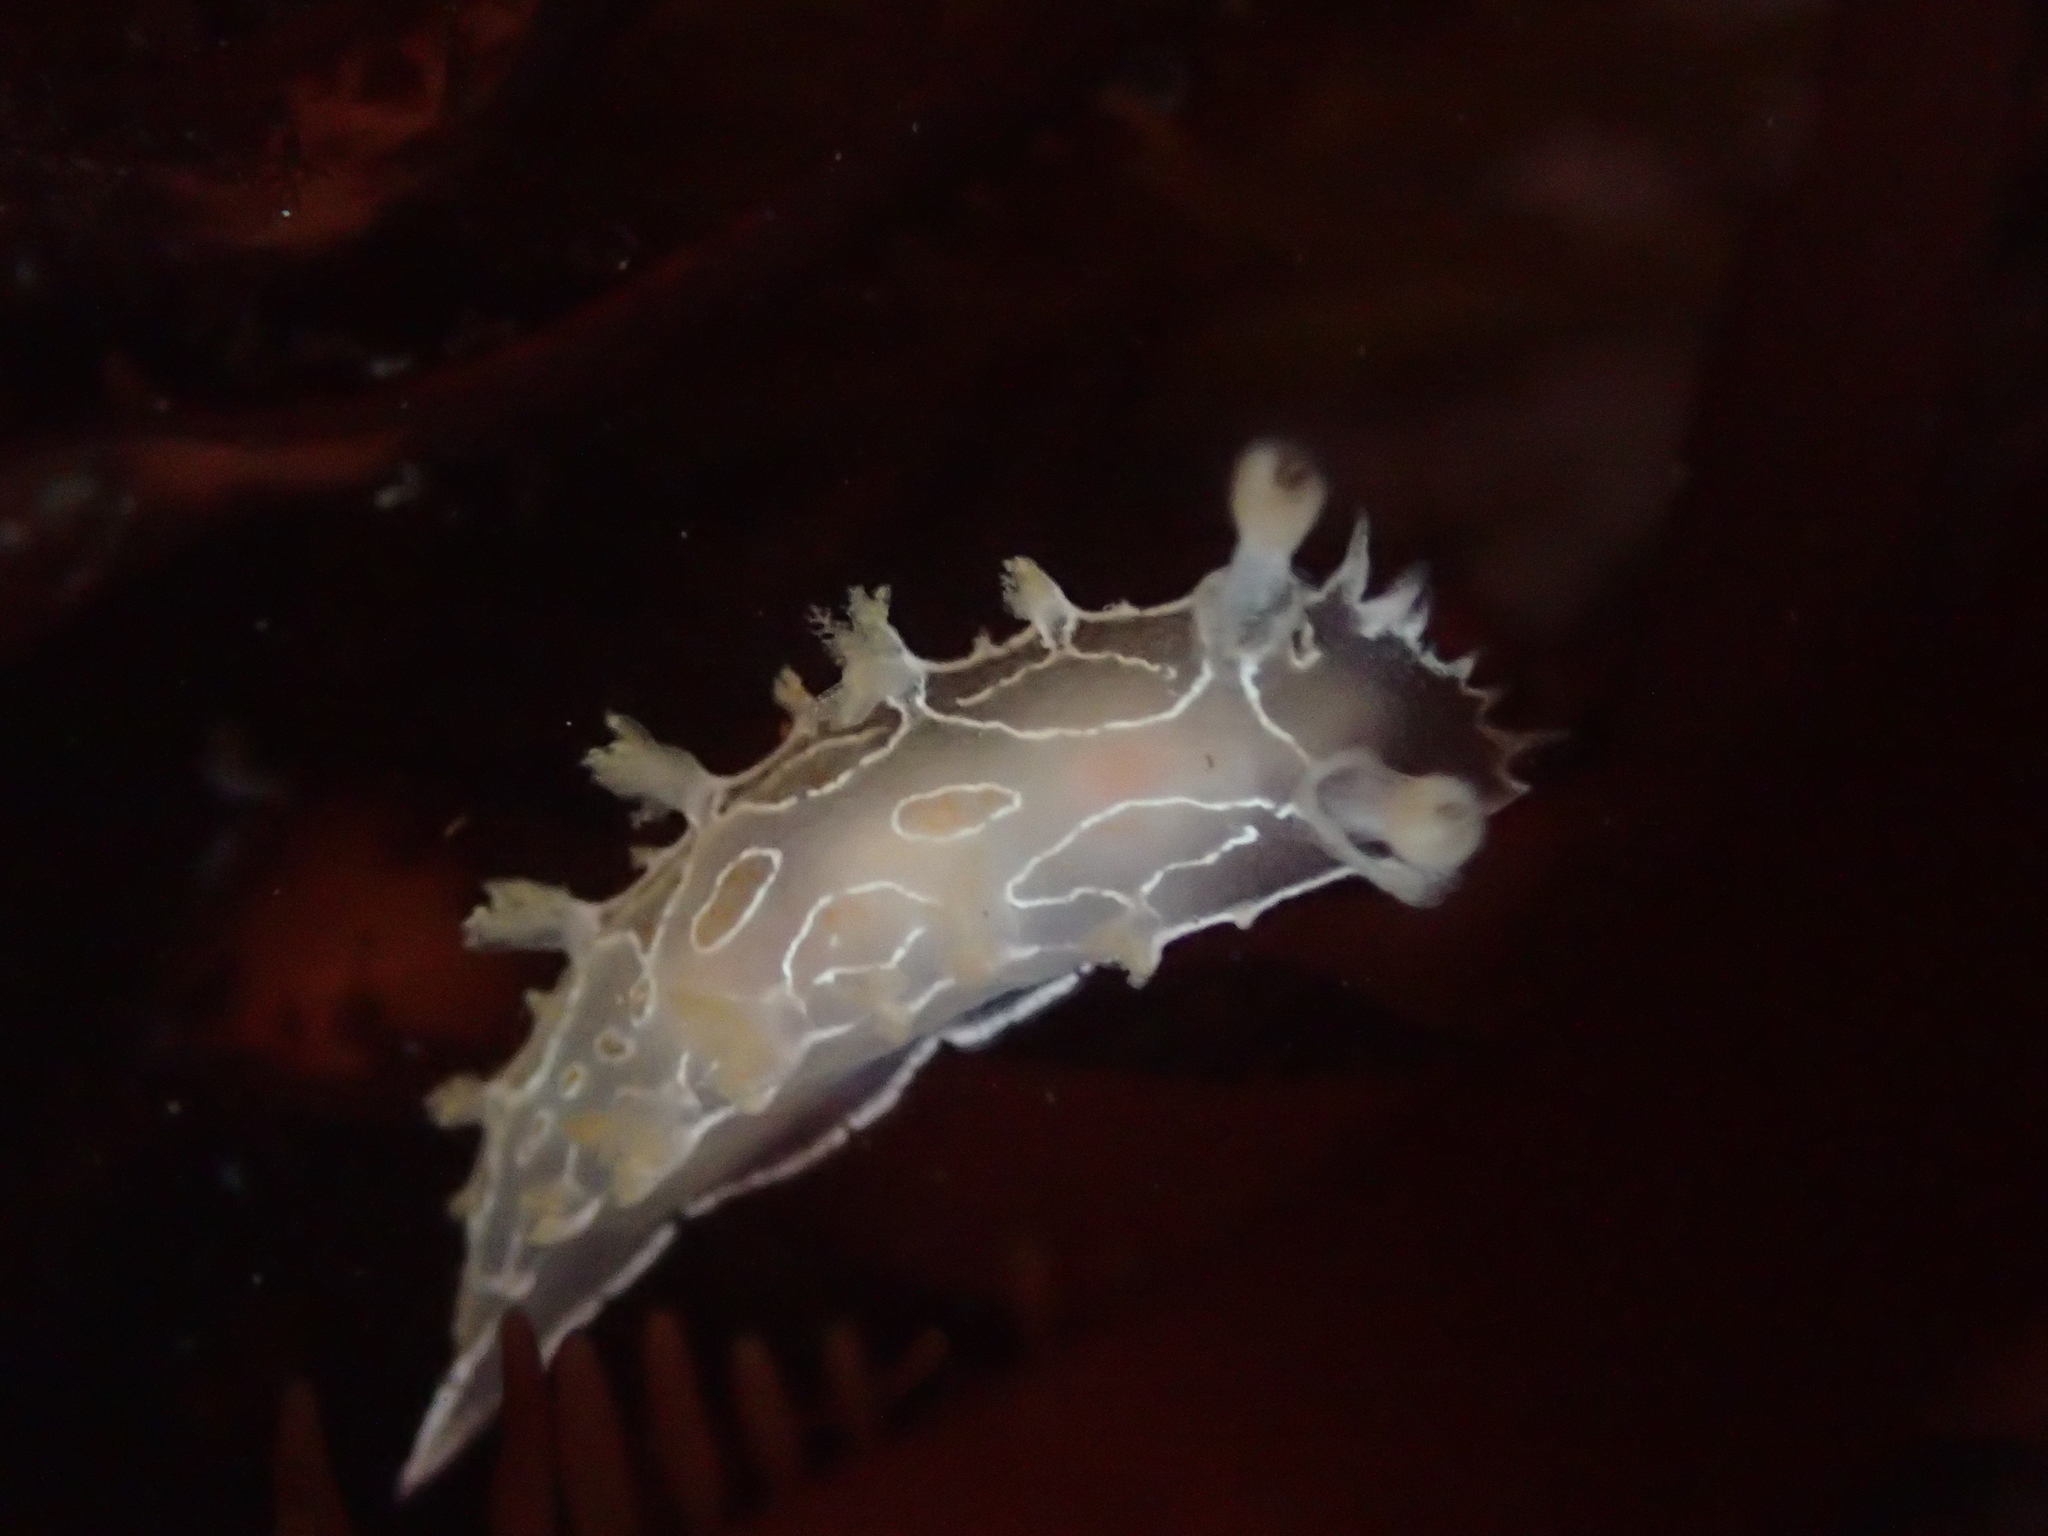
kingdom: Animalia
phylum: Mollusca
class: Gastropoda
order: Nudibranchia
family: Tritoniidae
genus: Tritonia
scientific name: Tritonia festiva
